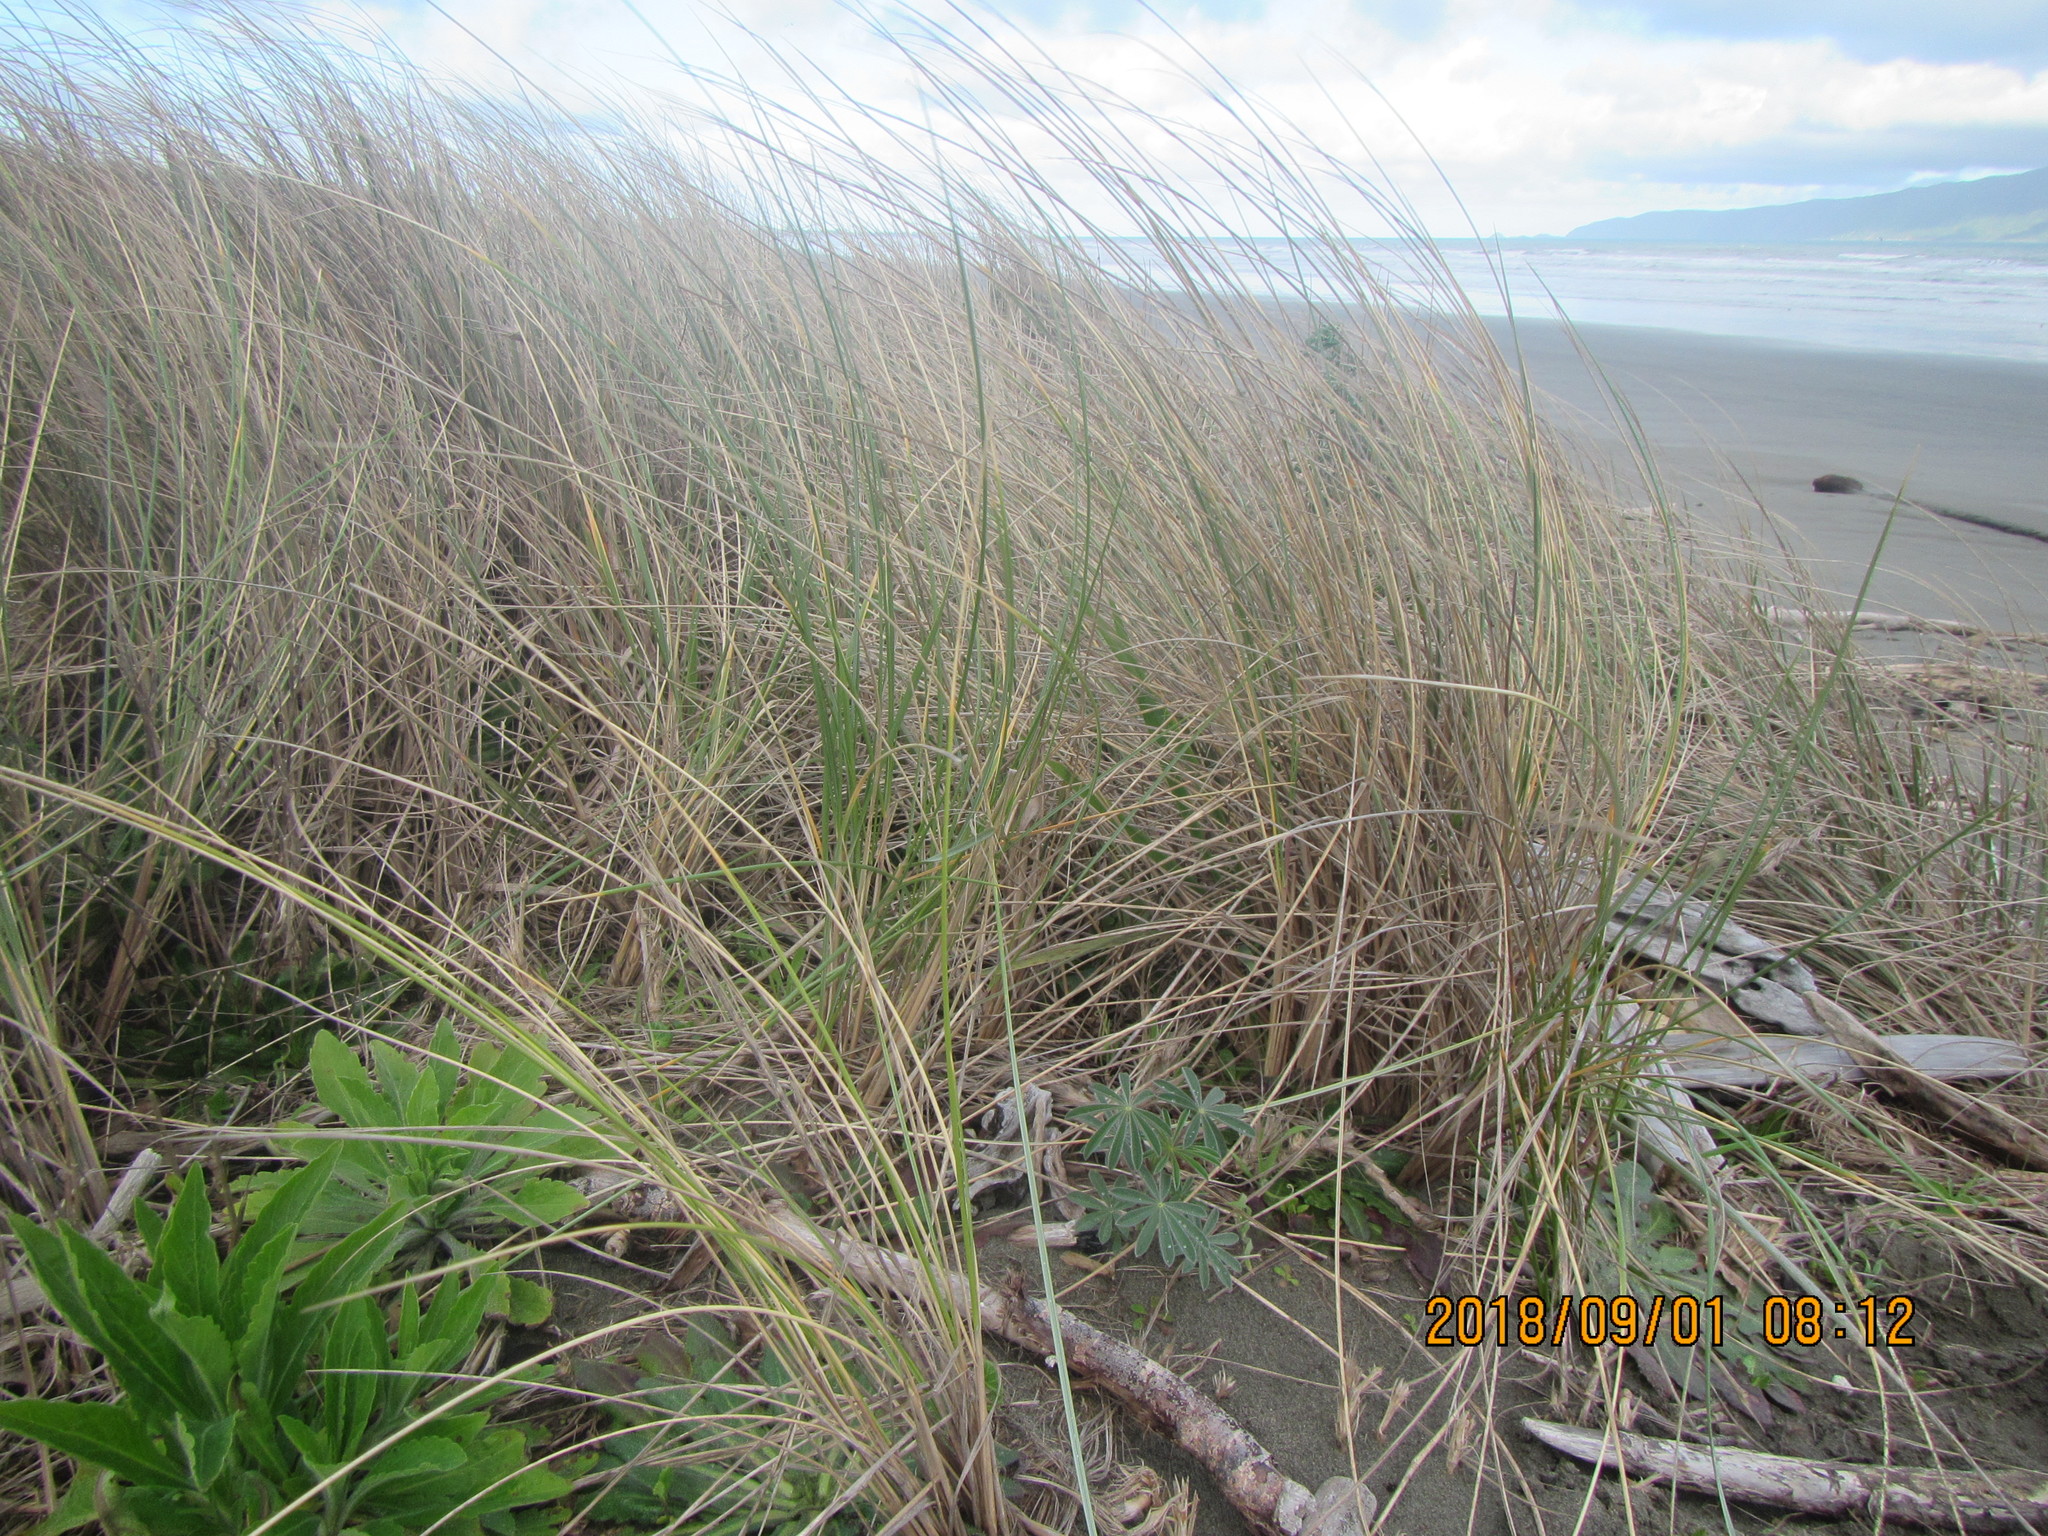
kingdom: Plantae
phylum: Tracheophyta
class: Liliopsida
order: Poales
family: Poaceae
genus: Calamagrostis
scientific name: Calamagrostis arenaria
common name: European beachgrass
